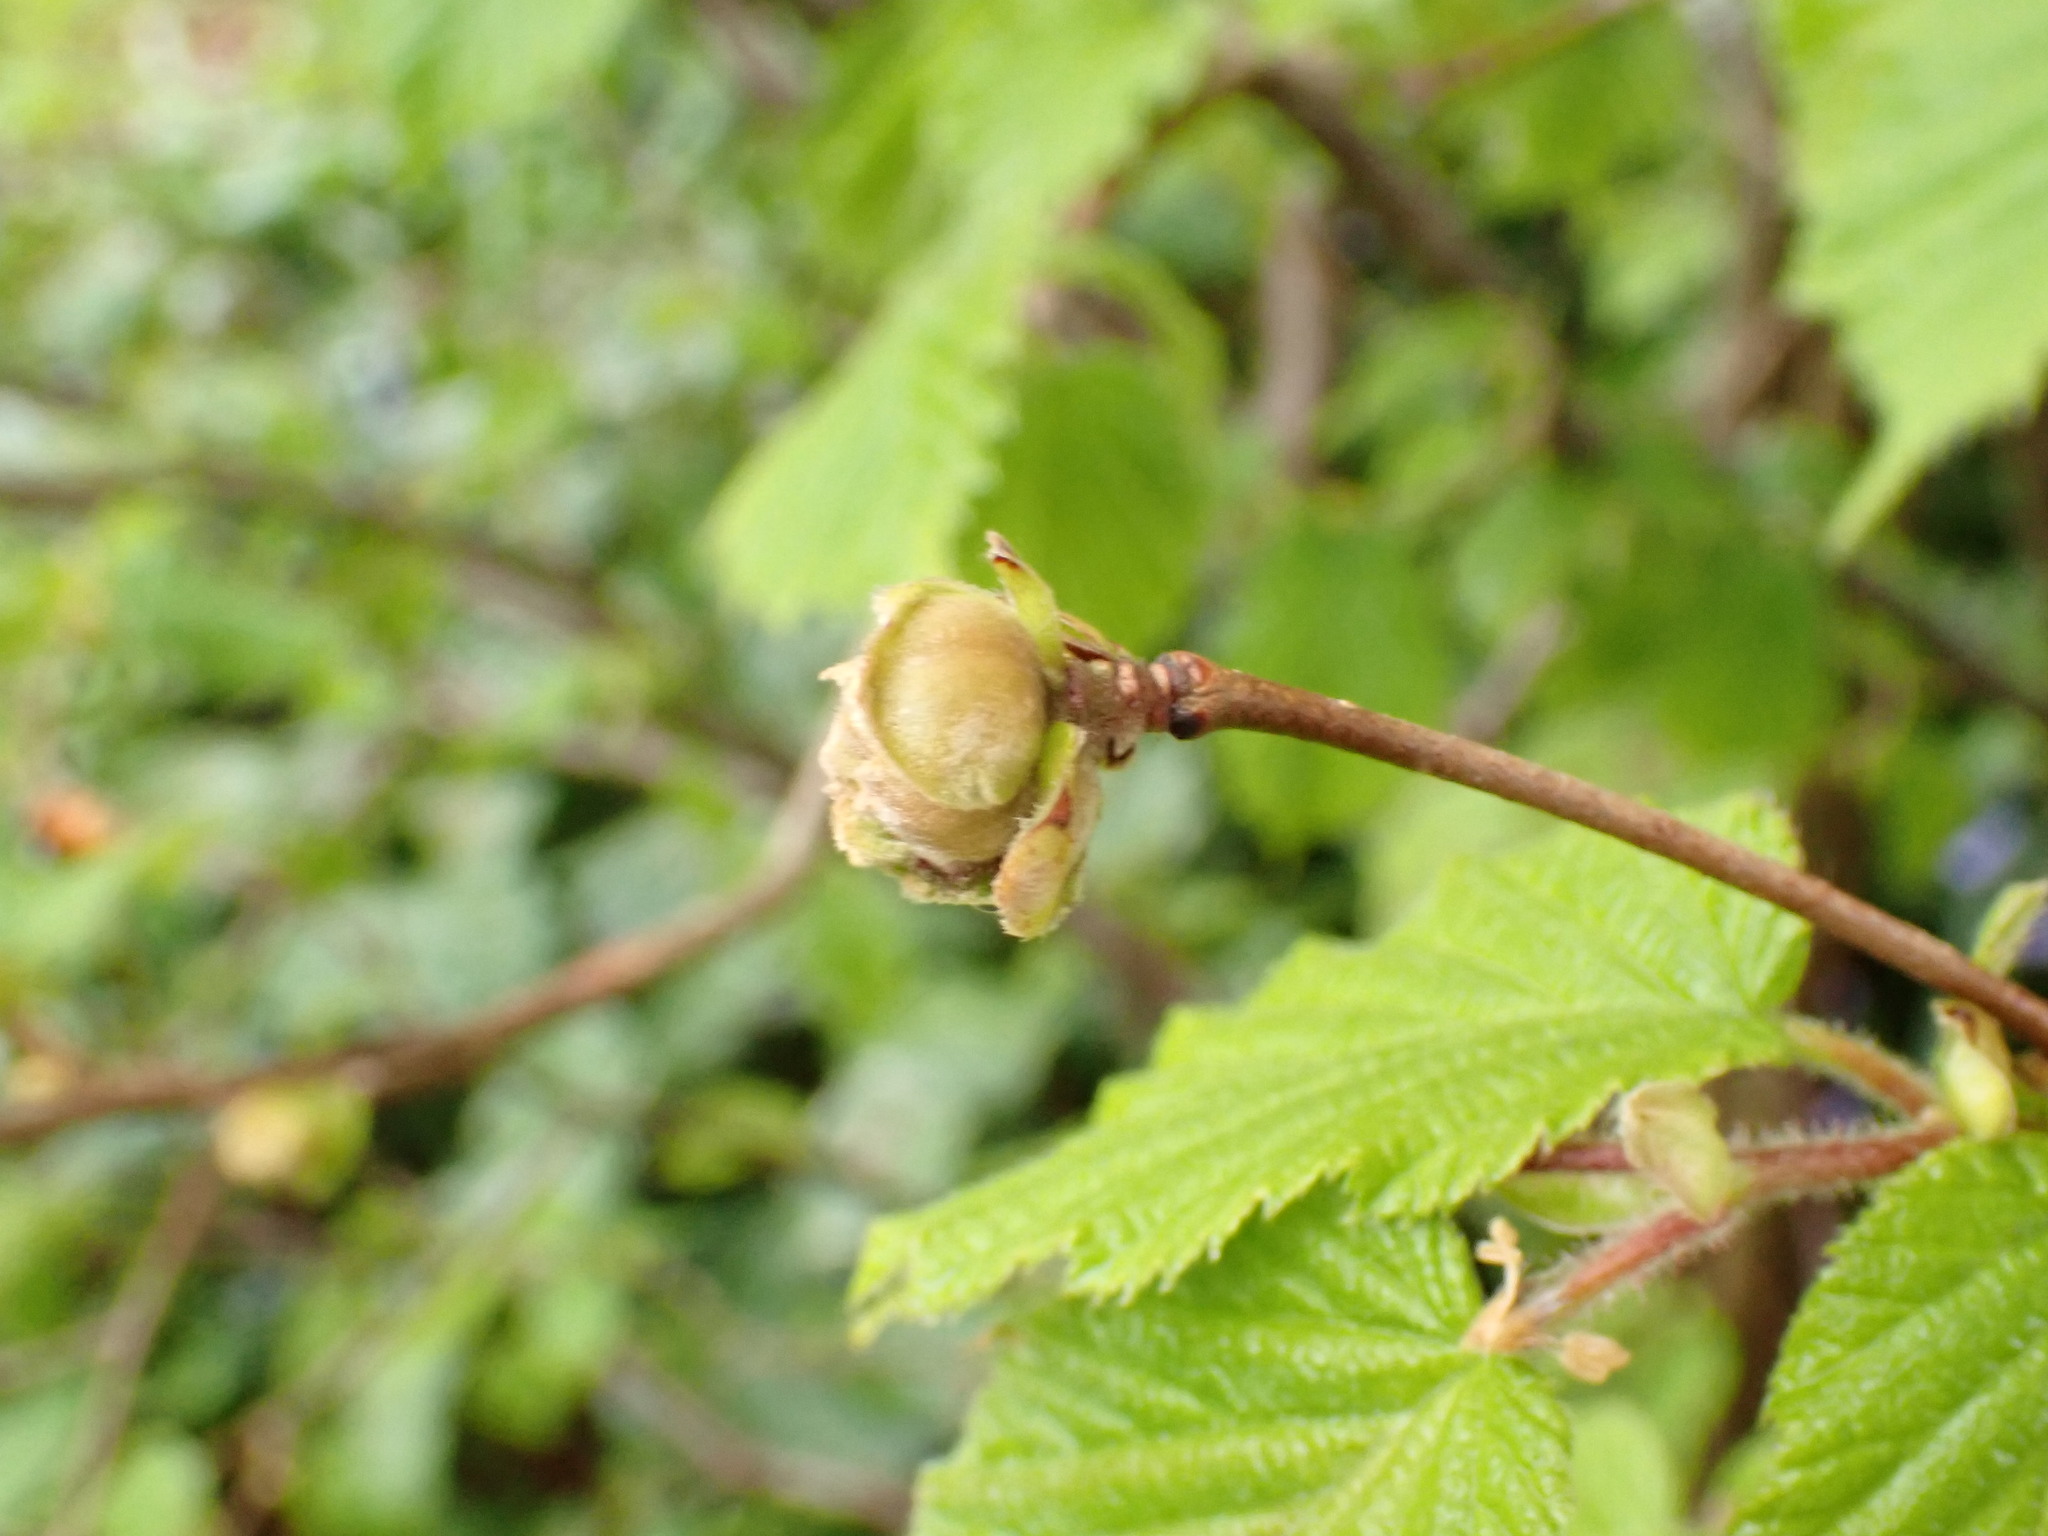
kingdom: Animalia
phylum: Arthropoda
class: Arachnida
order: Trombidiformes
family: Phytoptidae
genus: Phytoptus
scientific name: Phytoptus avellanae
